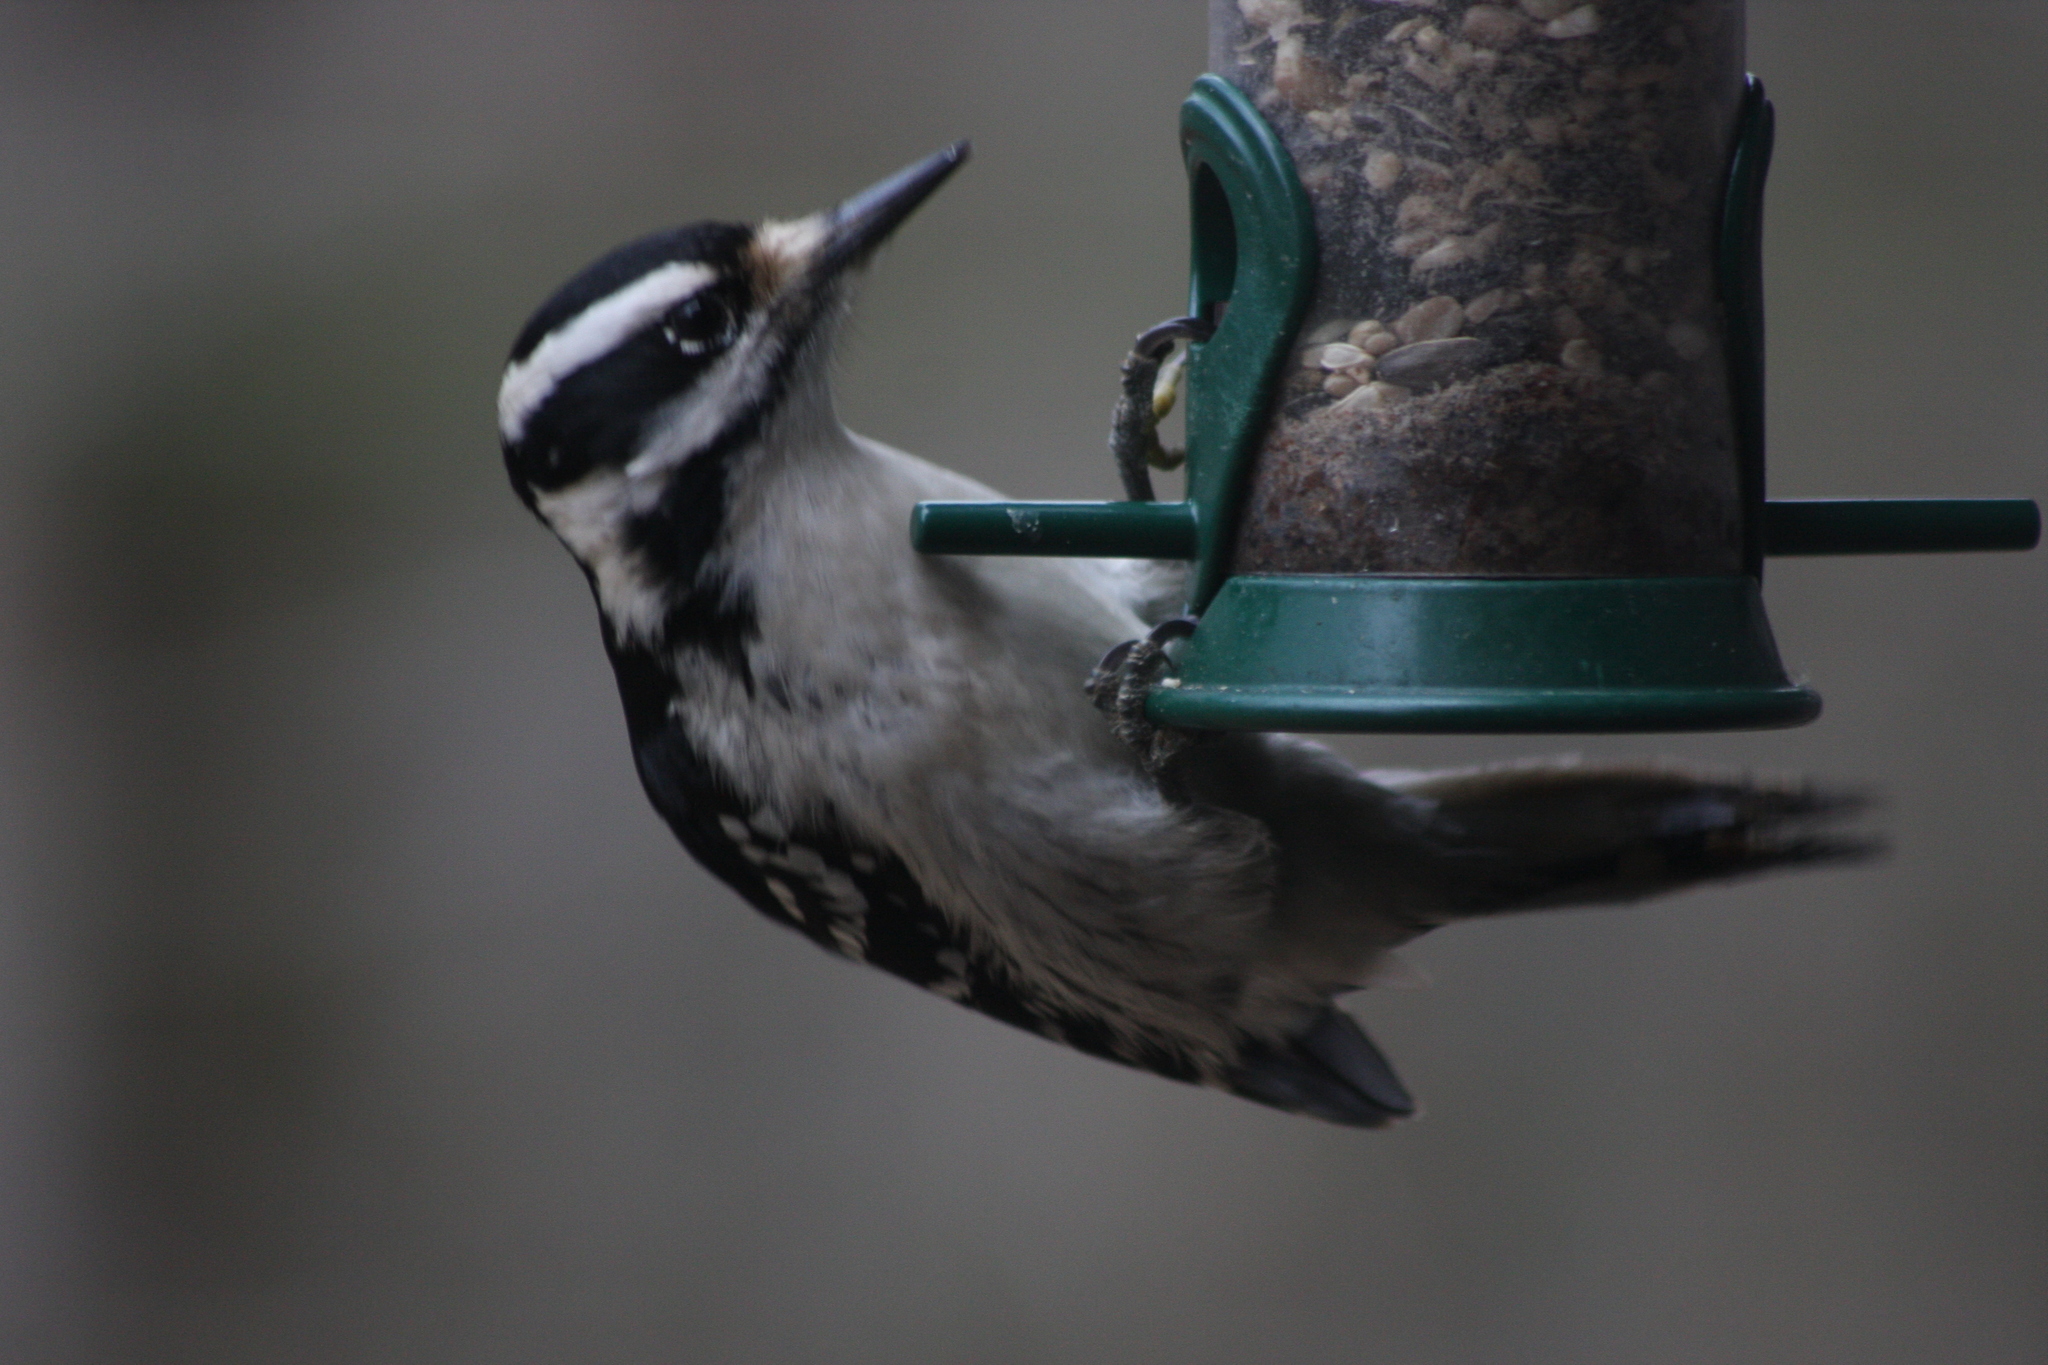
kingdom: Animalia
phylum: Chordata
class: Aves
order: Piciformes
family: Picidae
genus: Leuconotopicus
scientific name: Leuconotopicus villosus
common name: Hairy woodpecker
